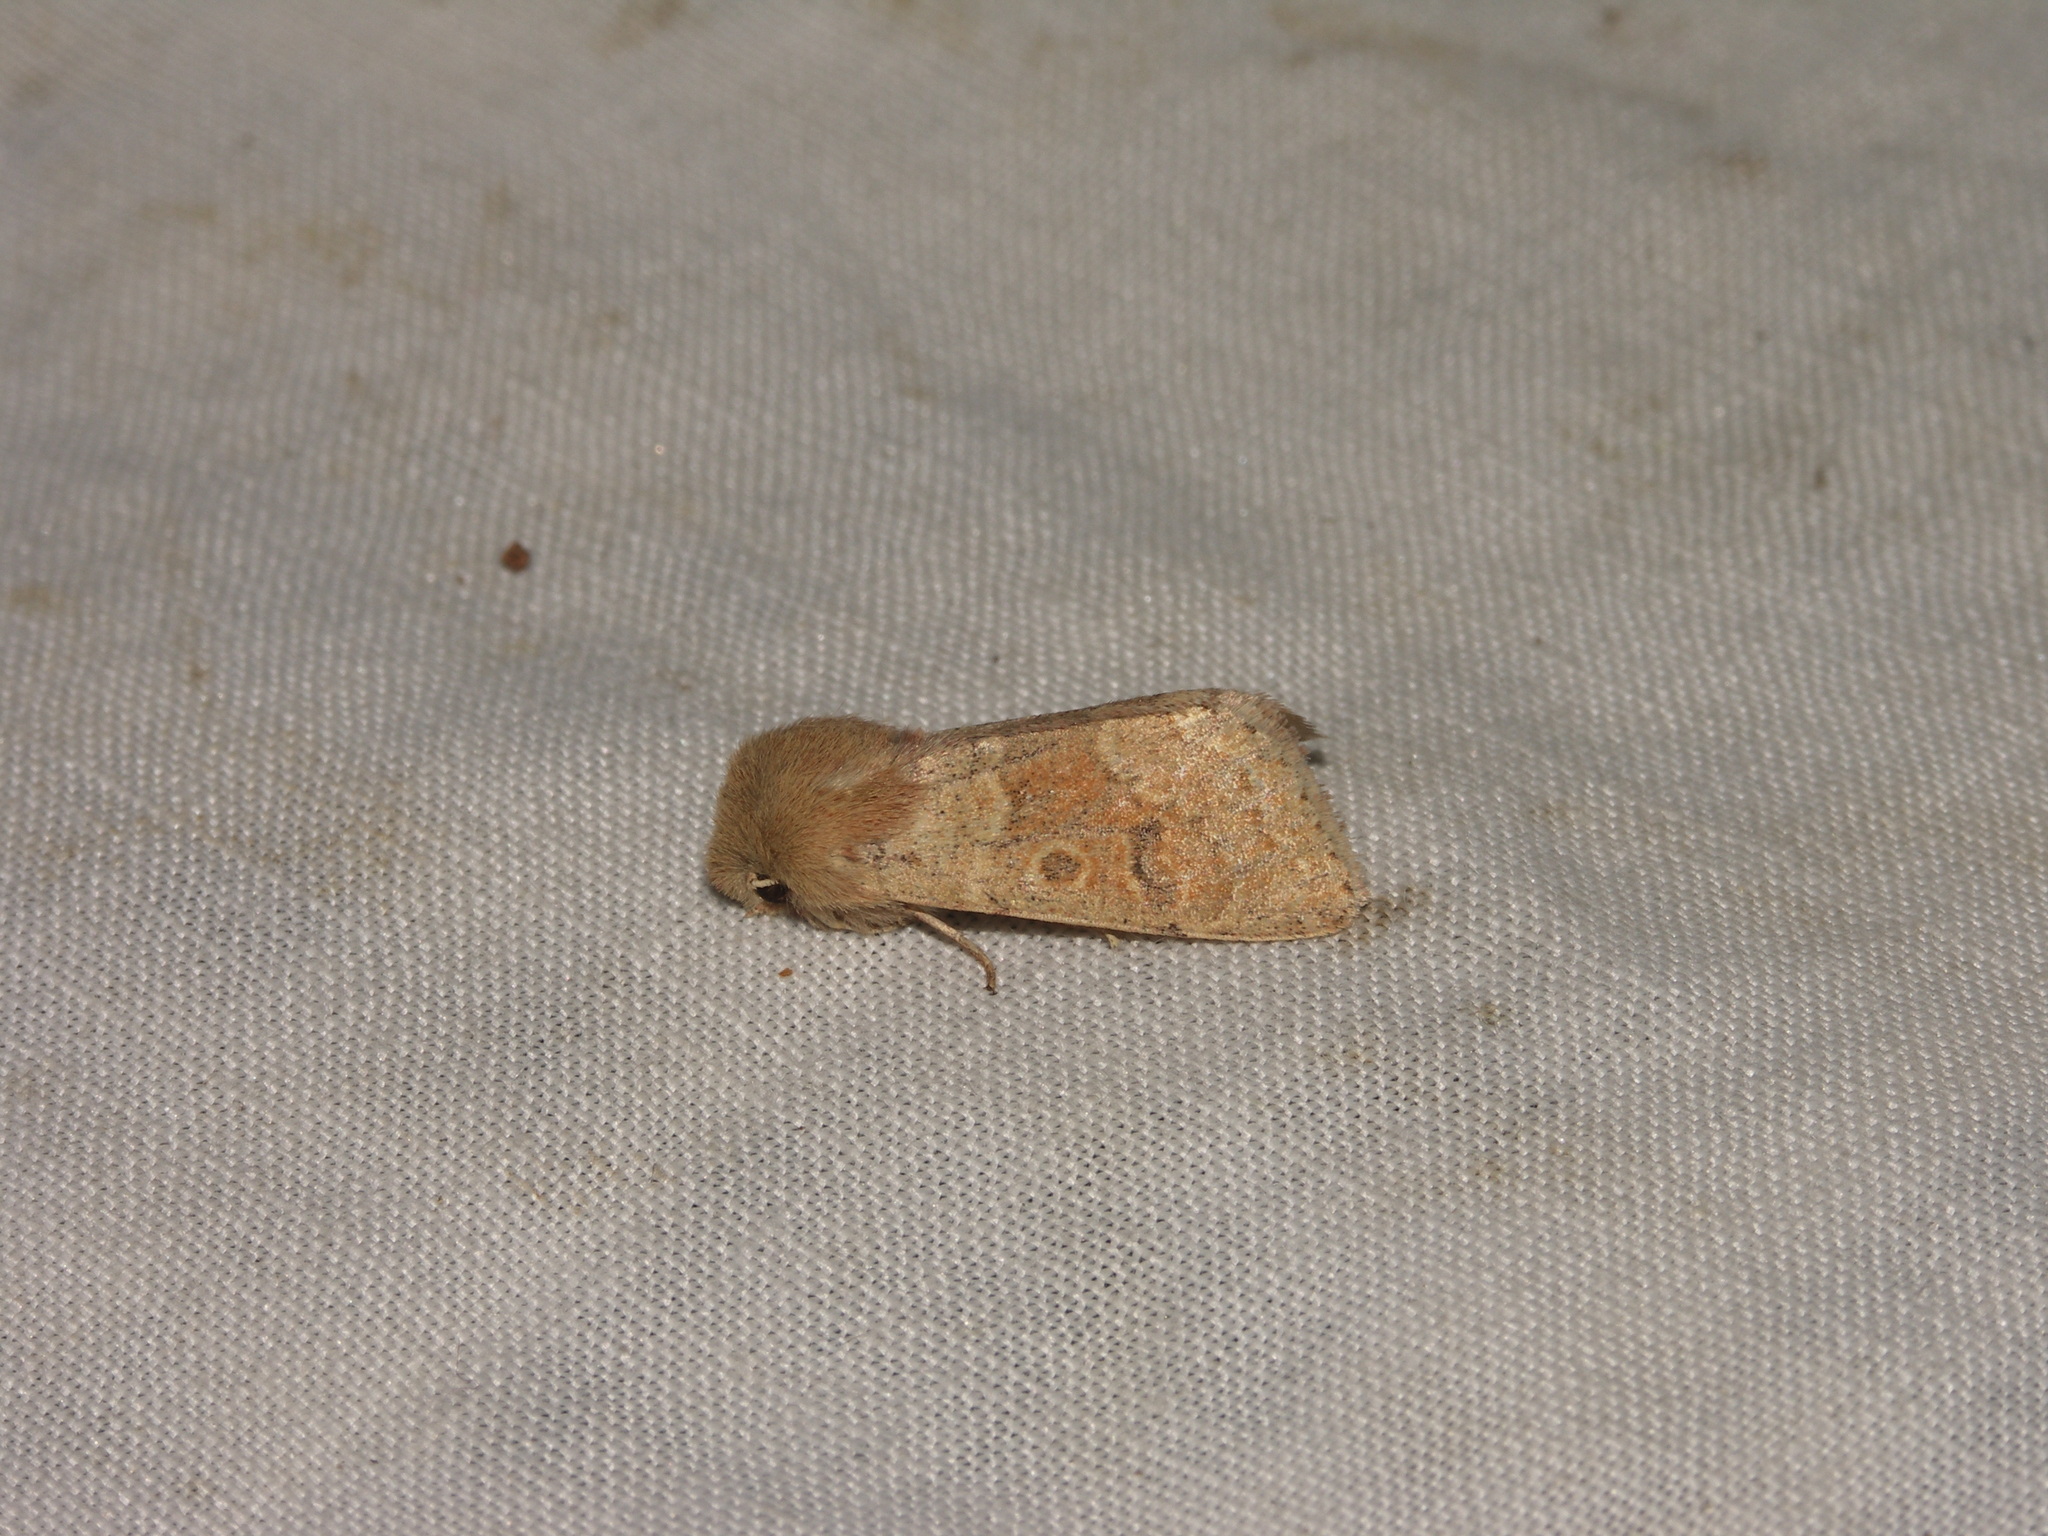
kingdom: Animalia
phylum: Arthropoda
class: Insecta
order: Lepidoptera
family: Noctuidae
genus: Orthosia
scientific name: Orthosia miniosa
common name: Blossom underwing
